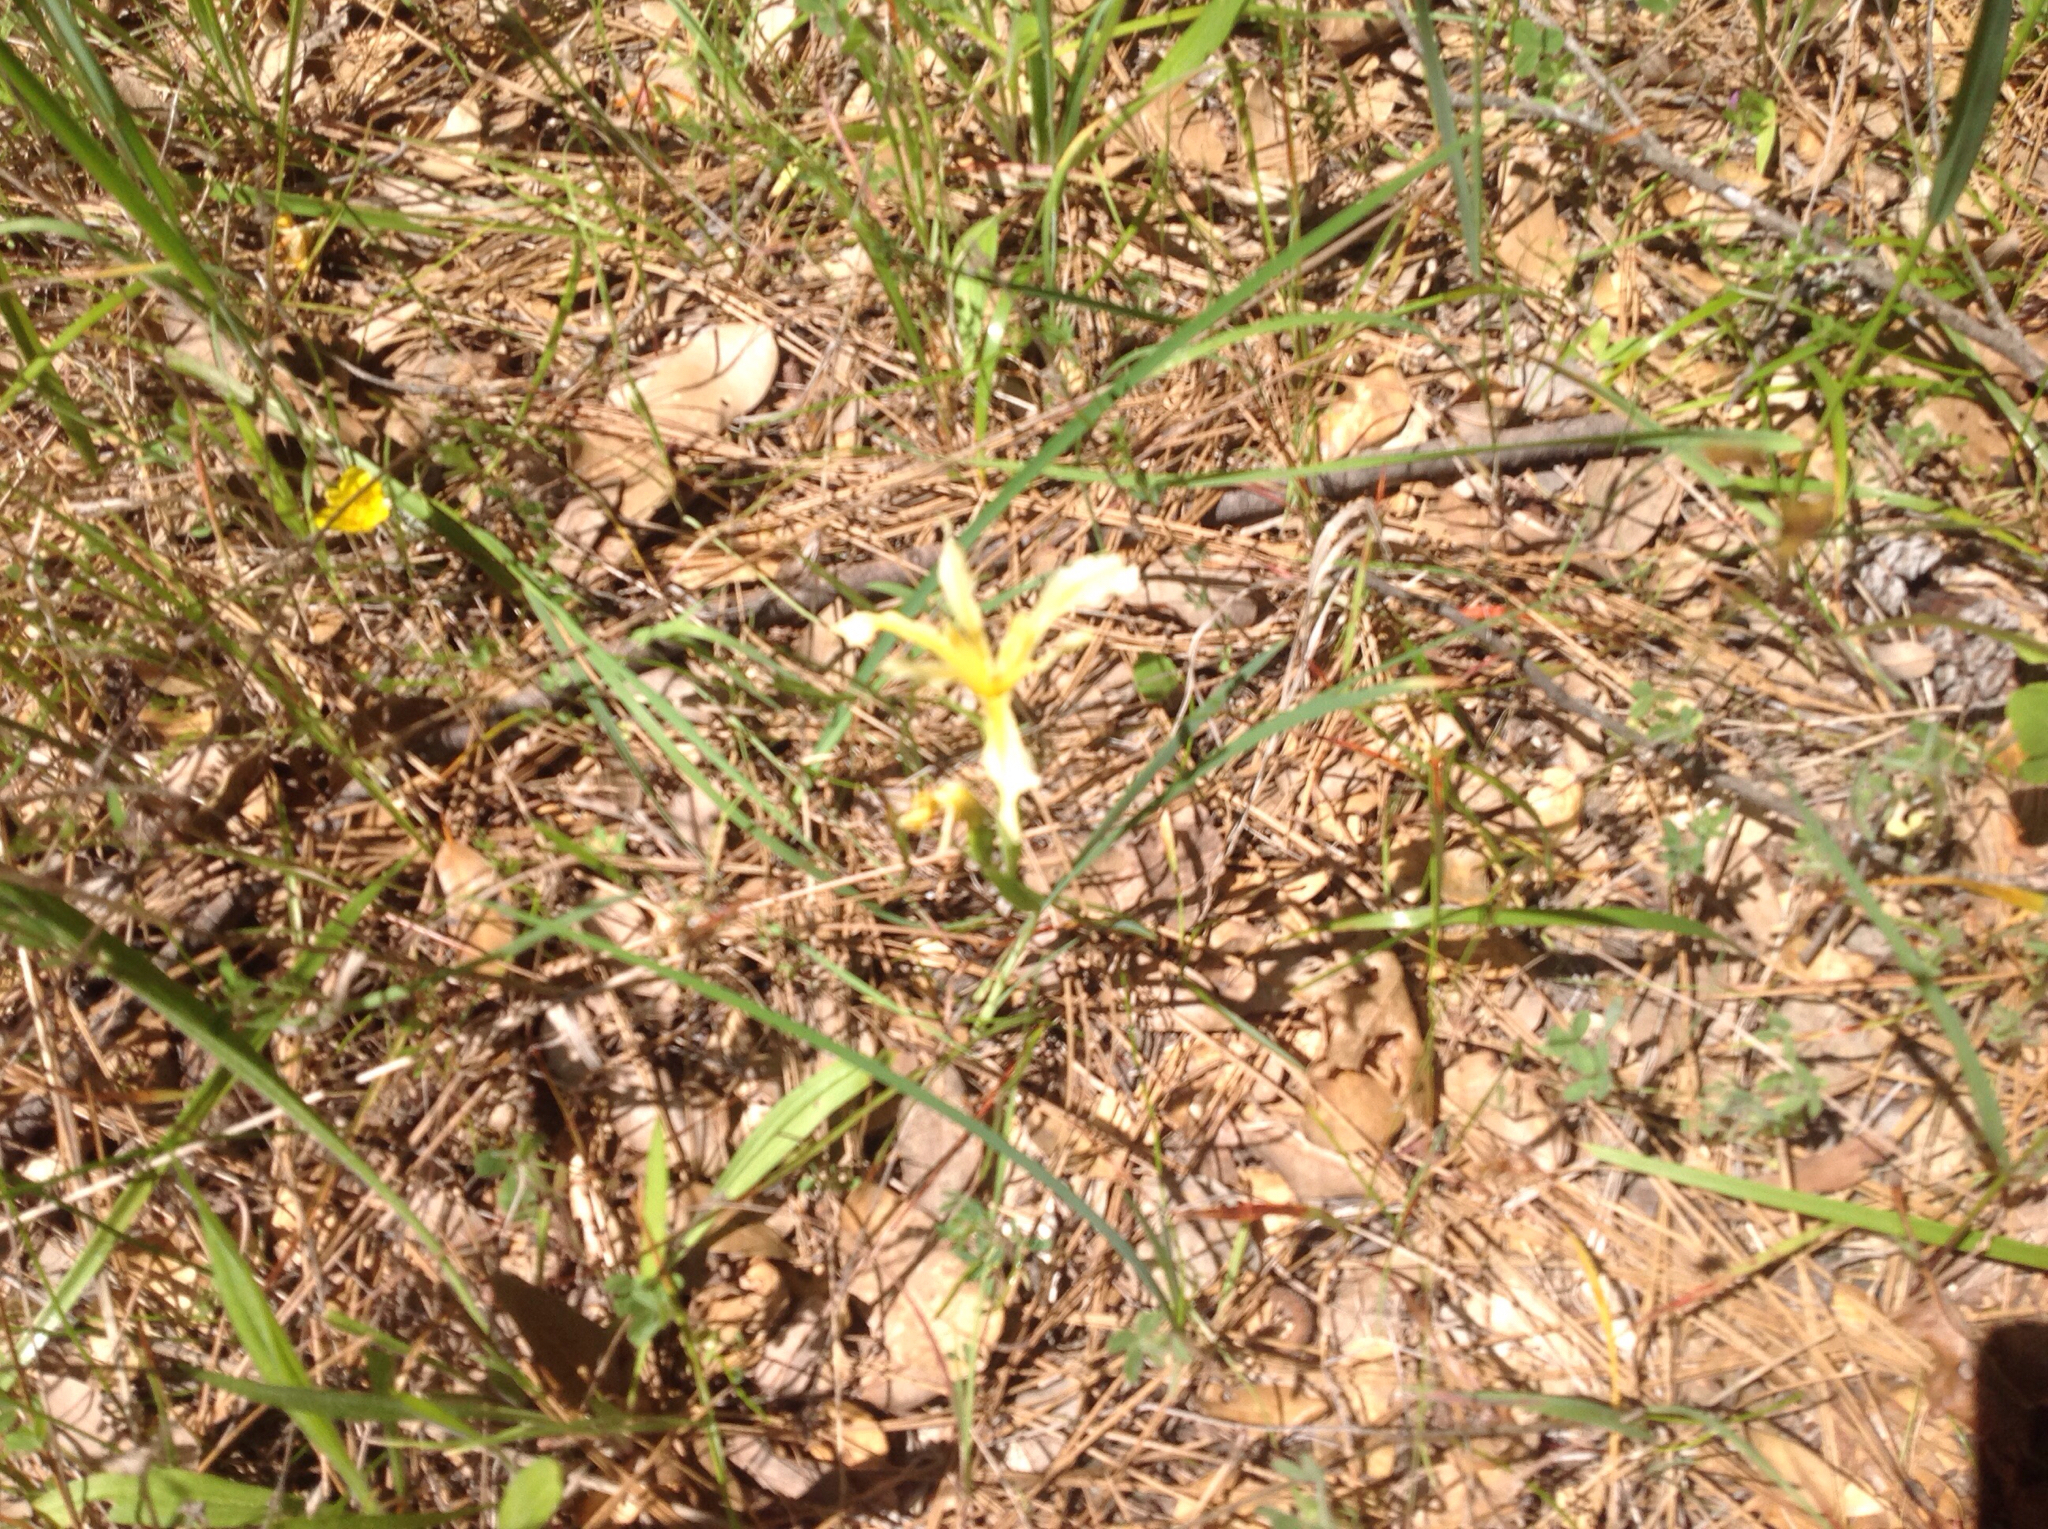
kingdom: Plantae
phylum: Tracheophyta
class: Liliopsida
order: Asparagales
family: Iridaceae
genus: Iris
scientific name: Iris hartwegii
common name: Sierra iris
